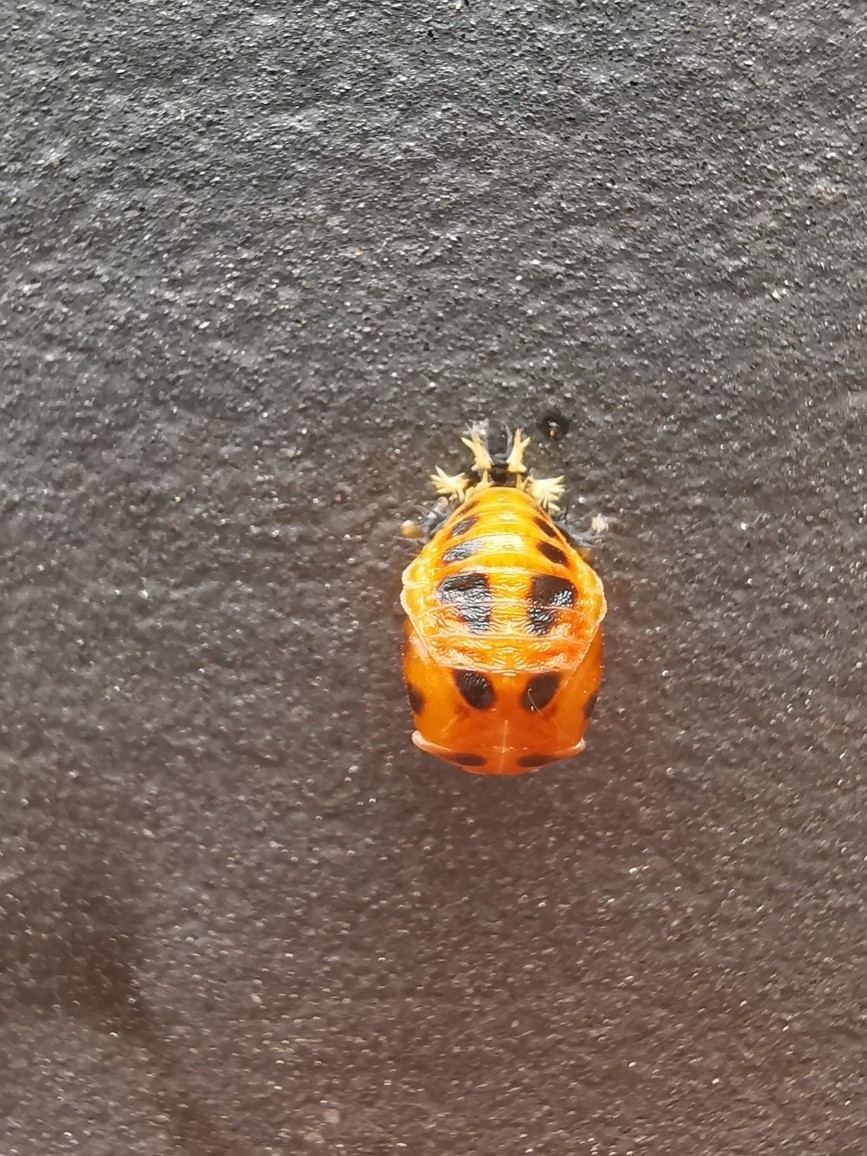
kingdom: Animalia
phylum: Arthropoda
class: Insecta
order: Coleoptera
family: Coccinellidae
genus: Harmonia
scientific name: Harmonia axyridis
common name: Harlequin ladybird
